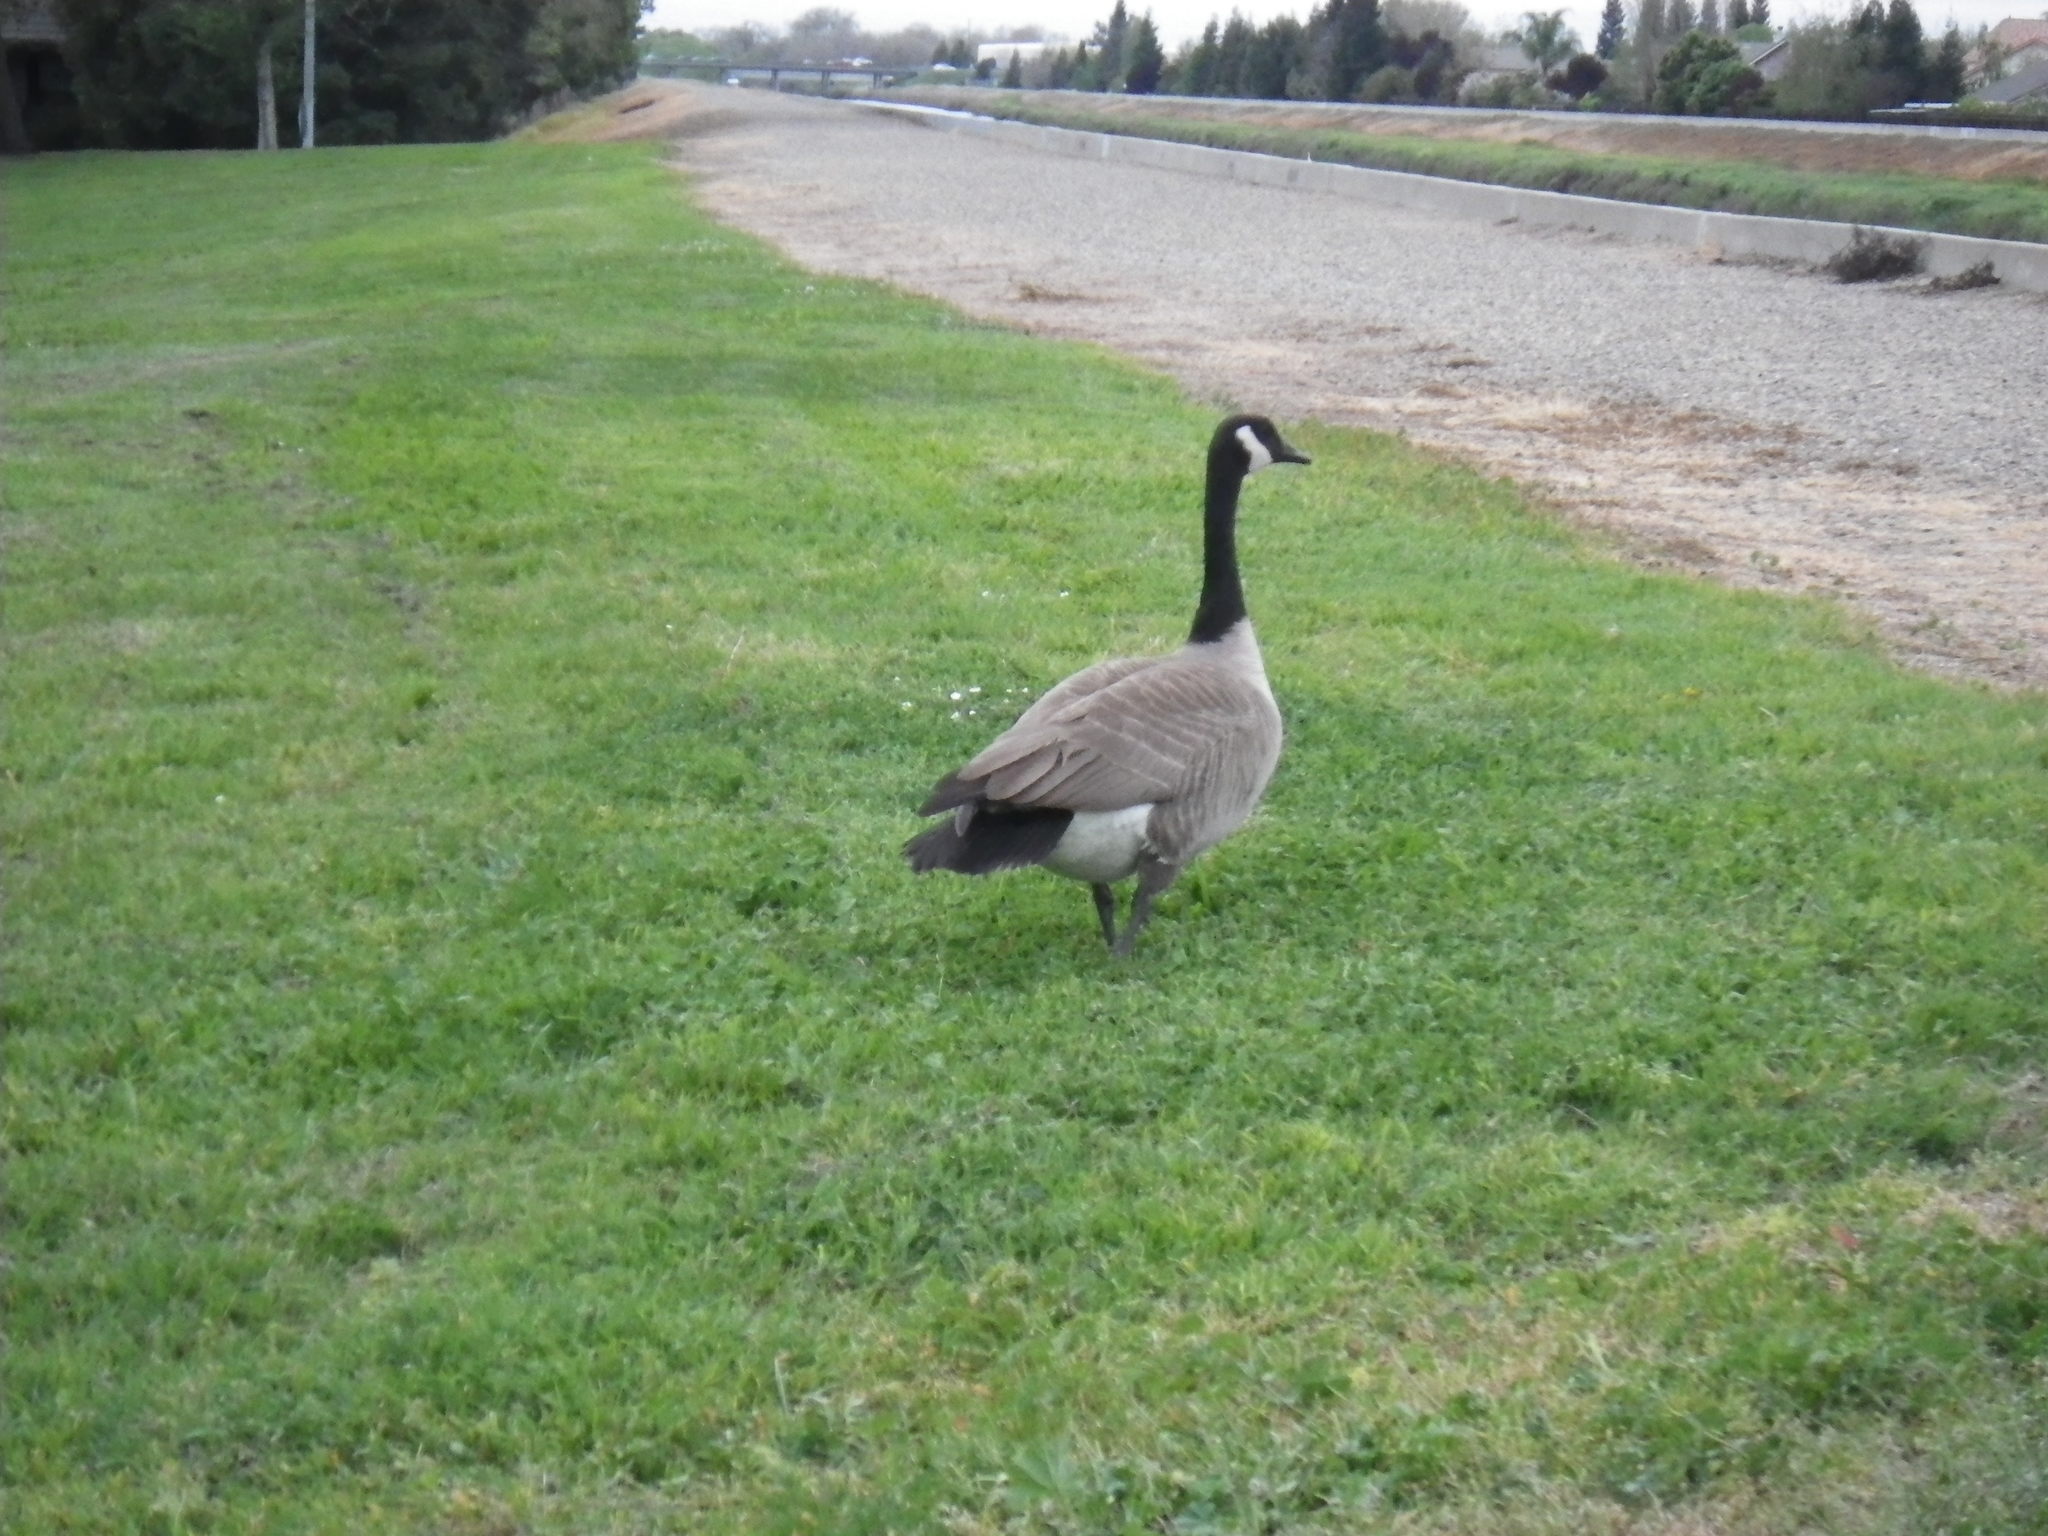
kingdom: Animalia
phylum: Chordata
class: Aves
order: Anseriformes
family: Anatidae
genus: Branta
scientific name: Branta canadensis
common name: Canada goose
